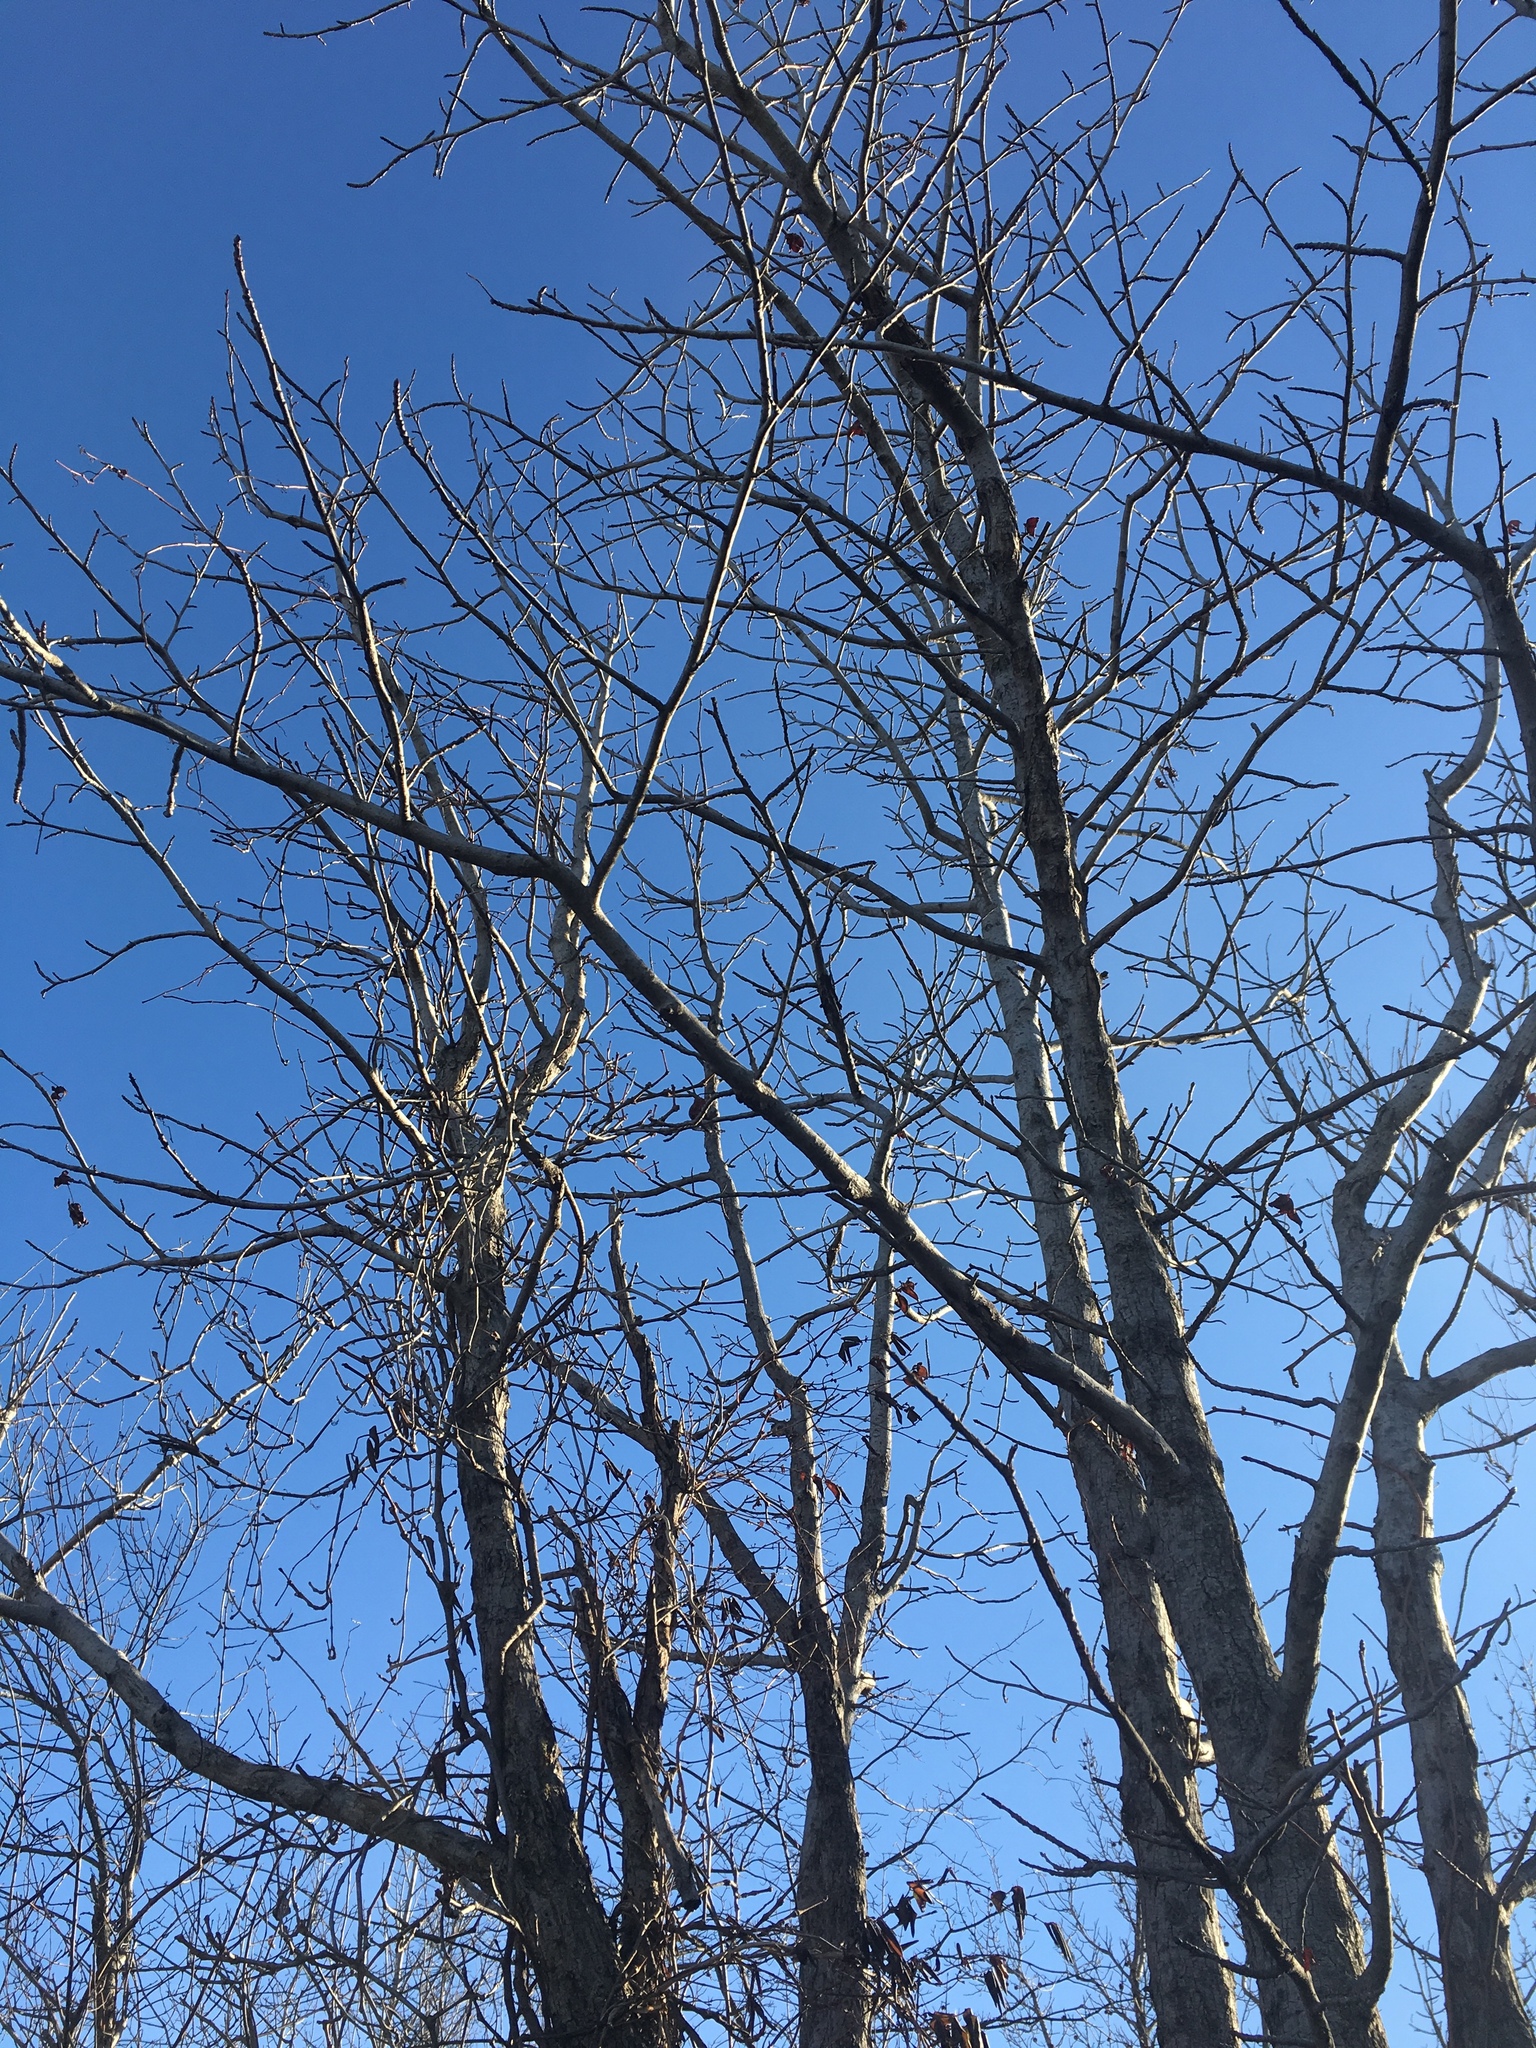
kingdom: Plantae
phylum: Tracheophyta
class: Magnoliopsida
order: Saxifragales
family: Altingiaceae
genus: Liquidambar
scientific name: Liquidambar styraciflua
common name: Sweet gum
